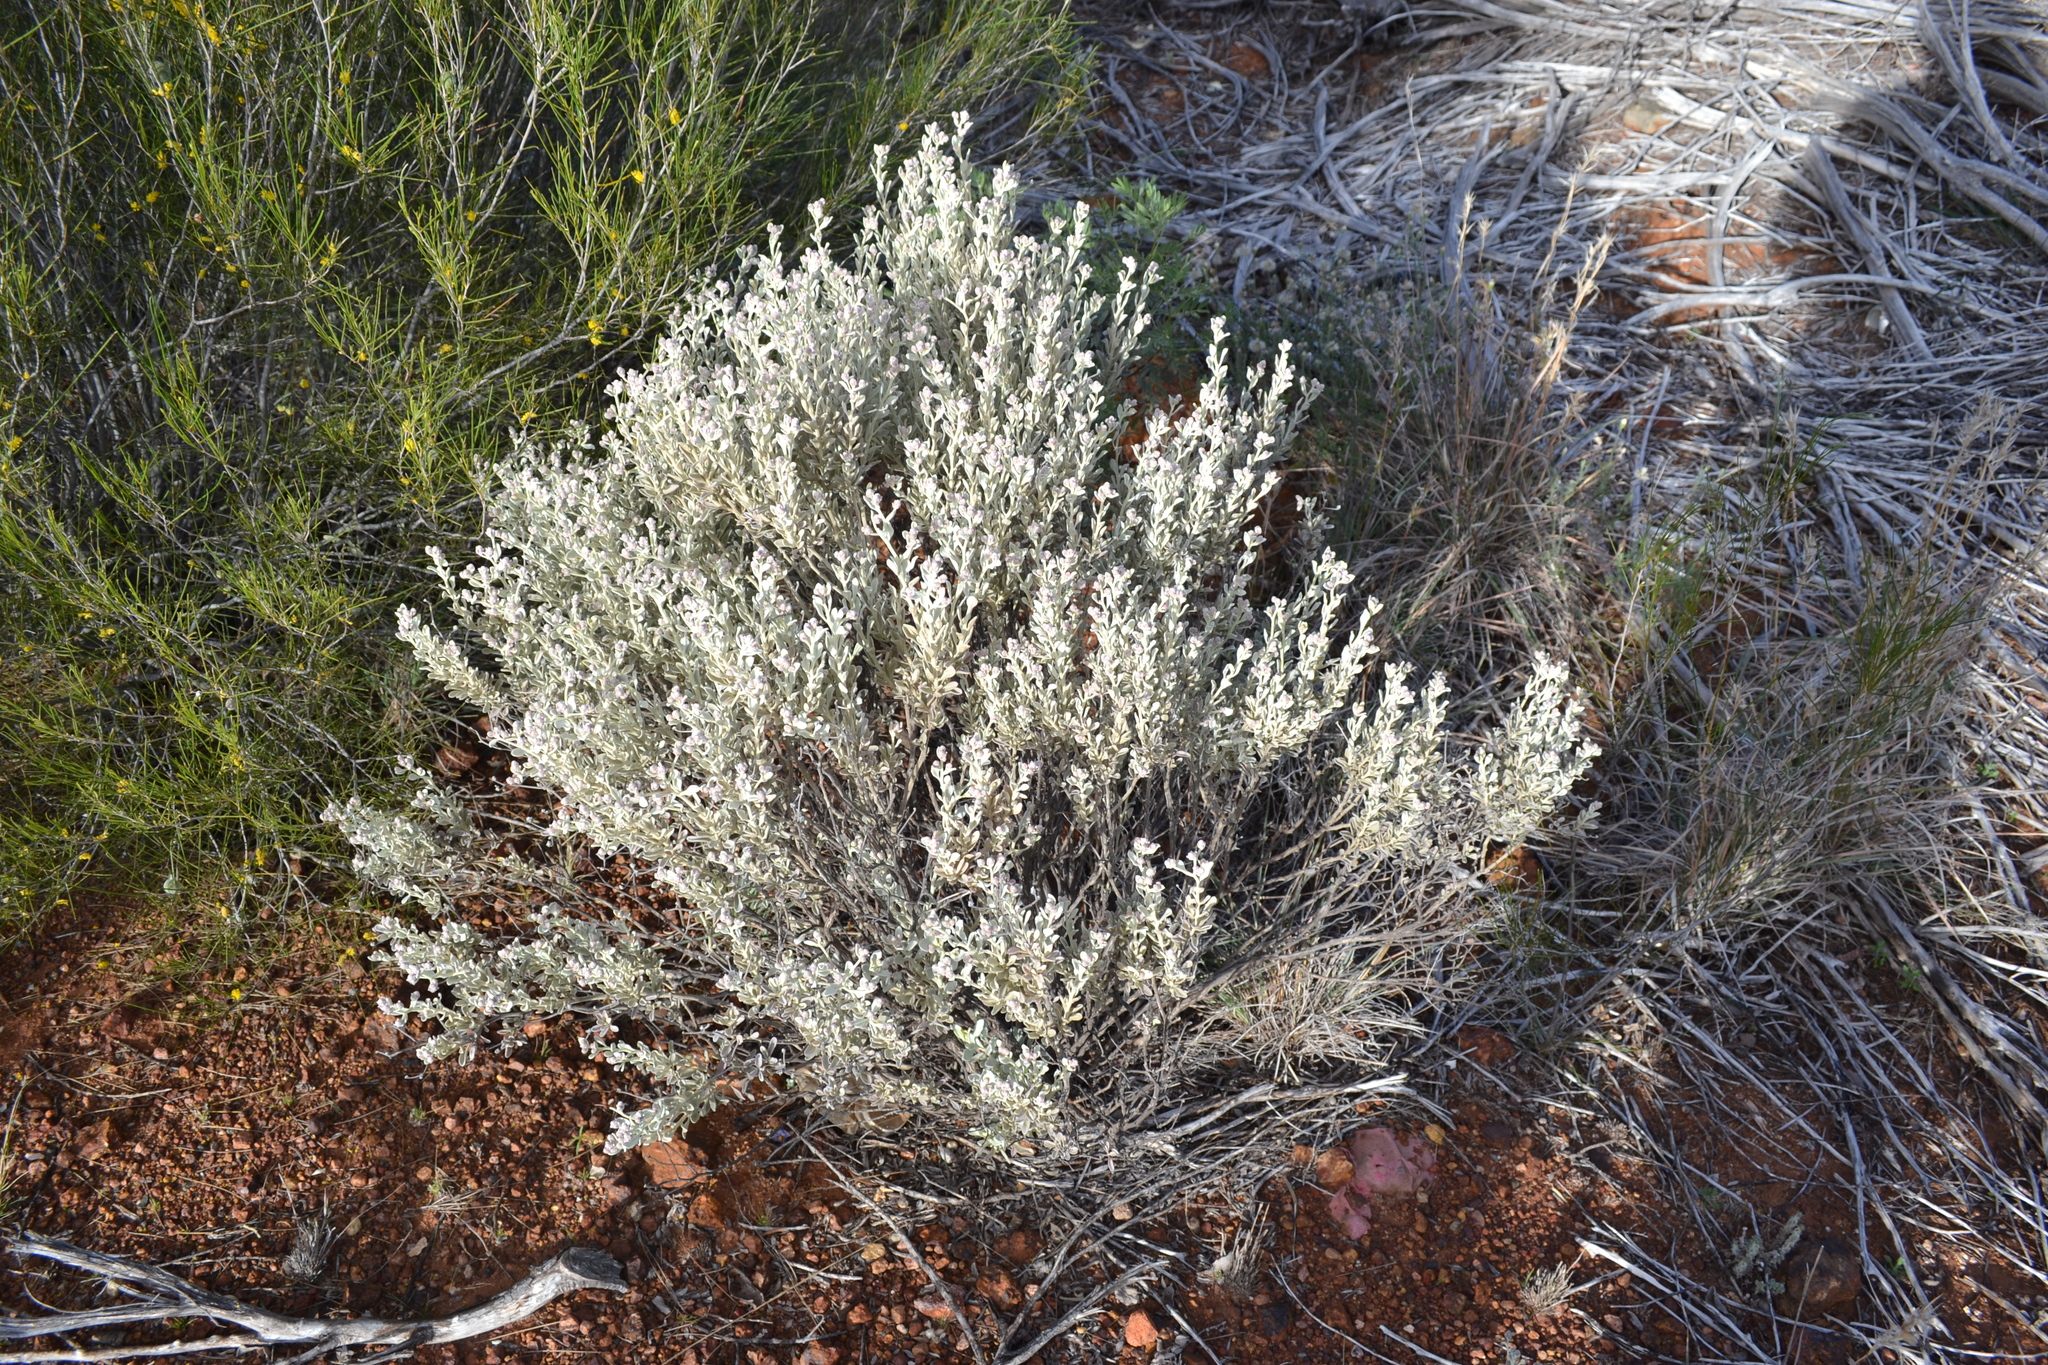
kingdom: Plantae
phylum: Tracheophyta
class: Magnoliopsida
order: Caryophyllales
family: Amaranthaceae
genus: Ptilotus
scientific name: Ptilotus obovatus
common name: Cottonbush
